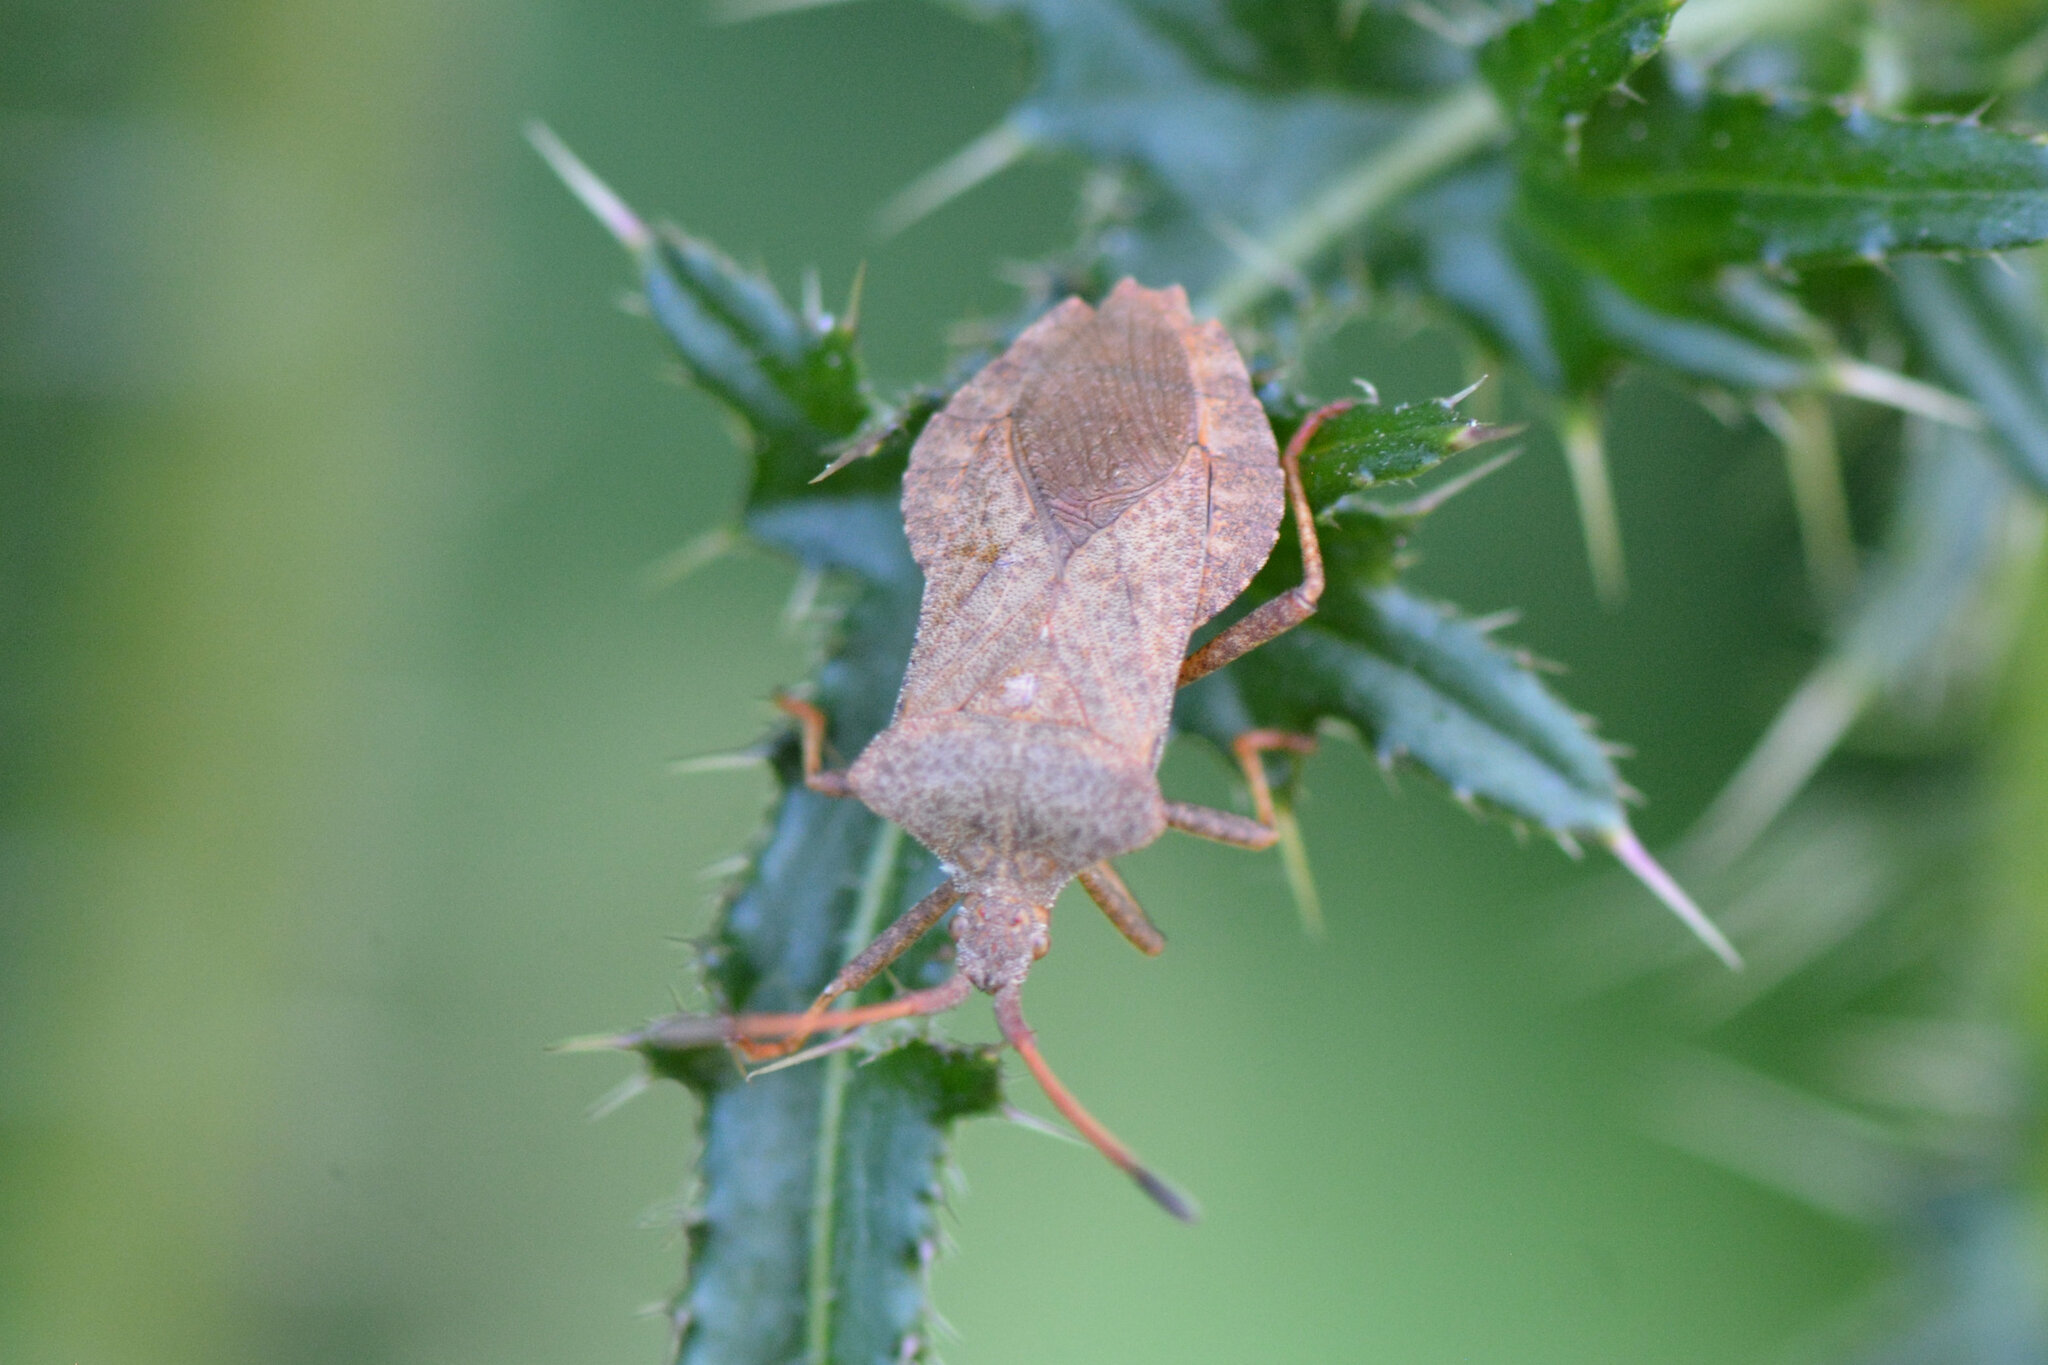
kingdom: Animalia
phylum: Arthropoda
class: Insecta
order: Hemiptera
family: Coreidae
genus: Coreus
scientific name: Coreus marginatus
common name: Dock bug
